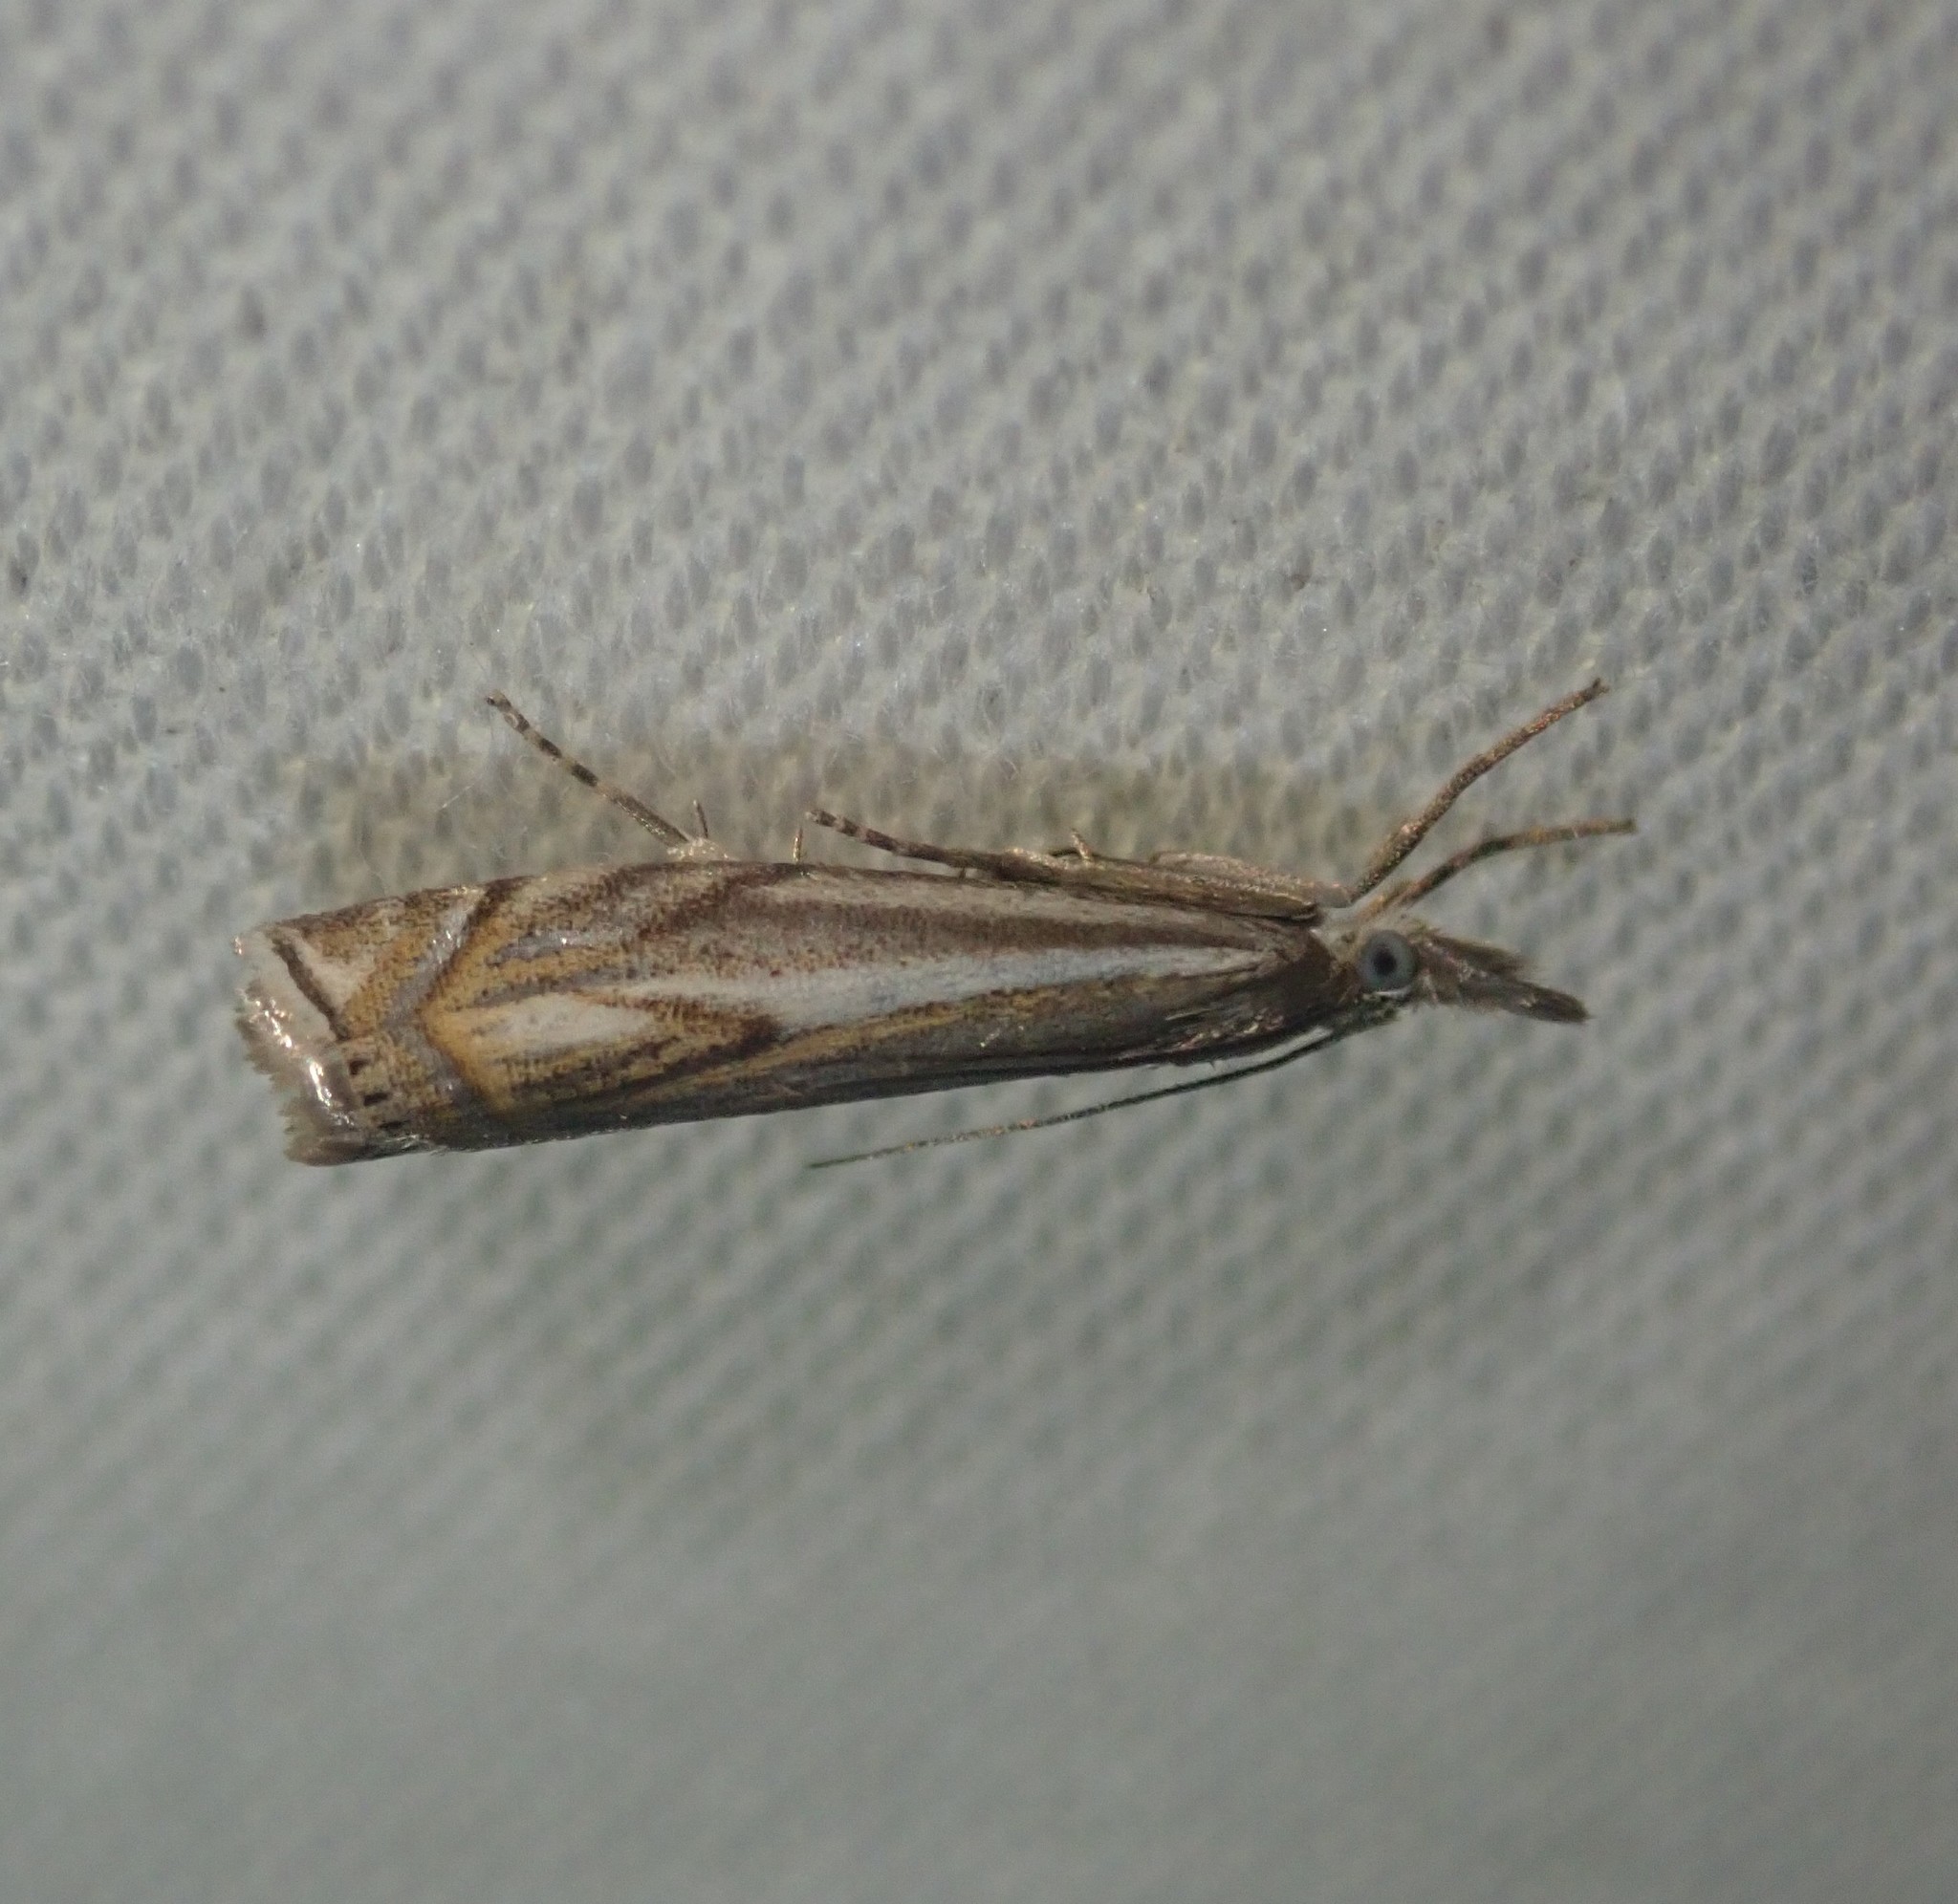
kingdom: Animalia
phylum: Arthropoda
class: Insecta
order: Lepidoptera
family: Crambidae
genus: Crambus
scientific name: Crambus nemorella
